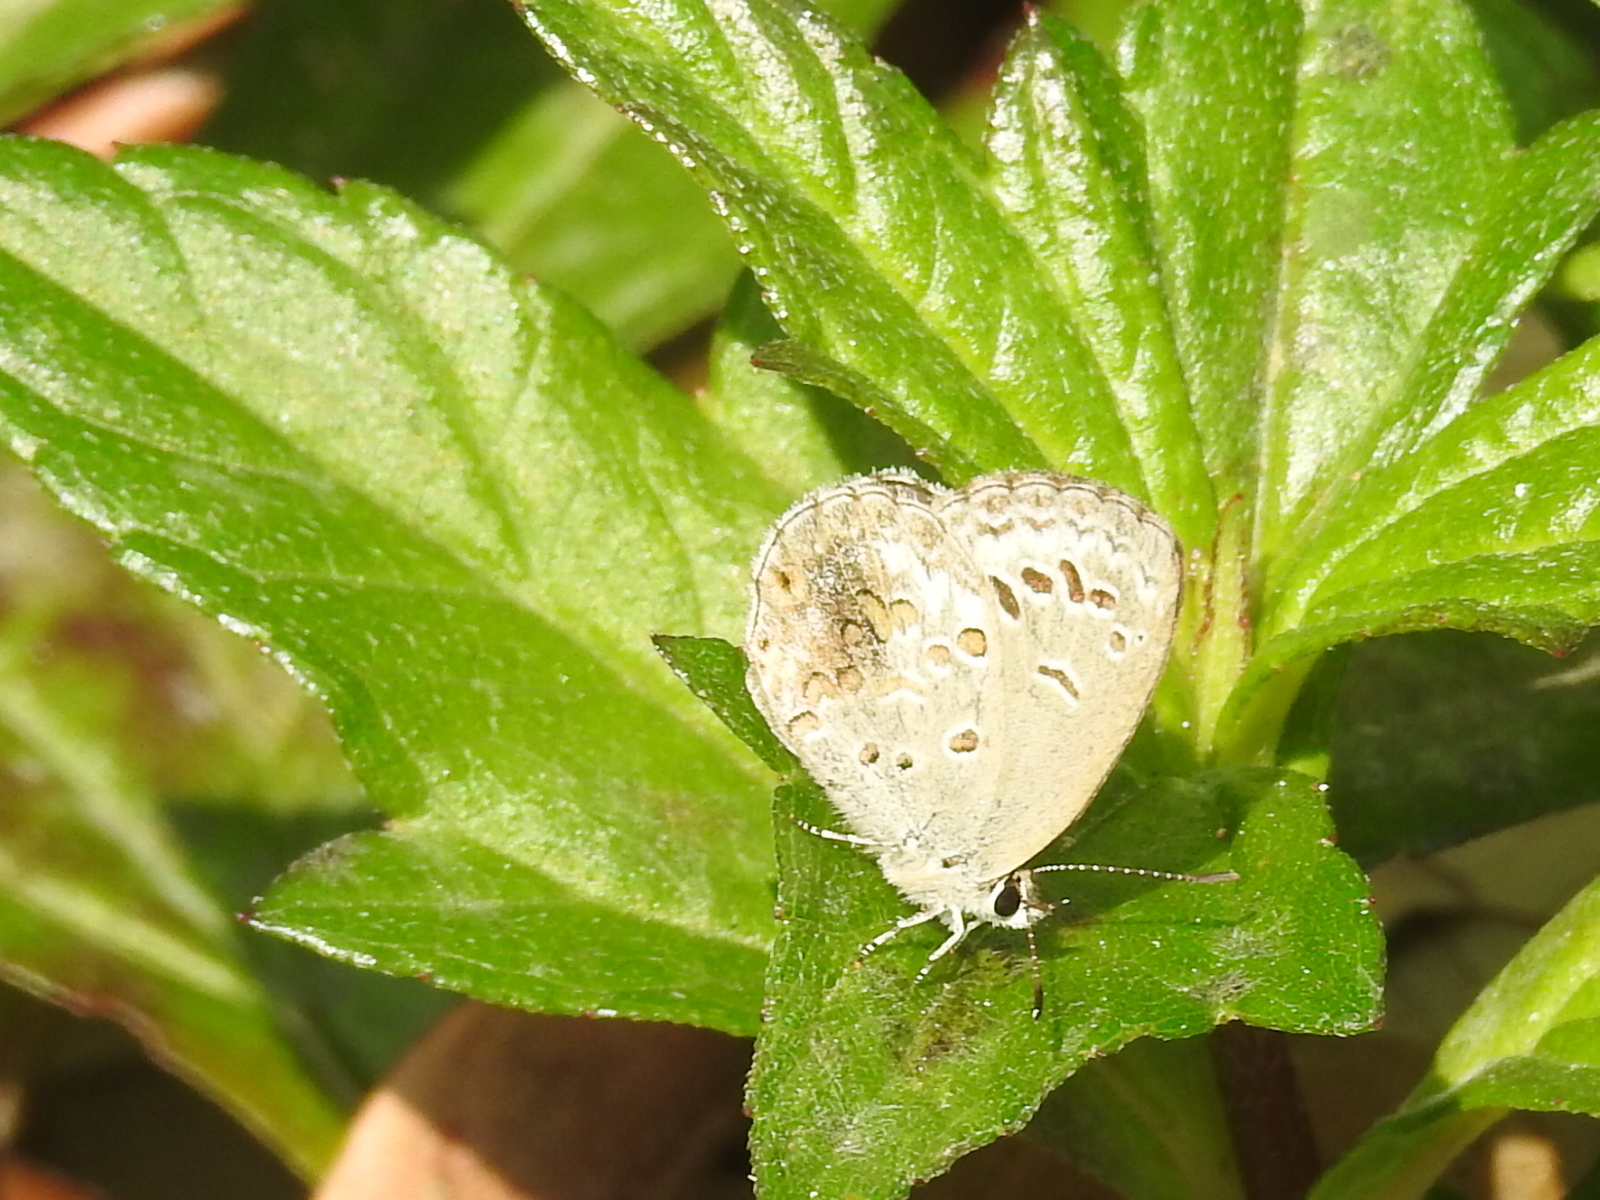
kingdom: Animalia
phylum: Arthropoda
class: Insecta
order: Lepidoptera
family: Lycaenidae
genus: Chilades
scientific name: Chilades laius
